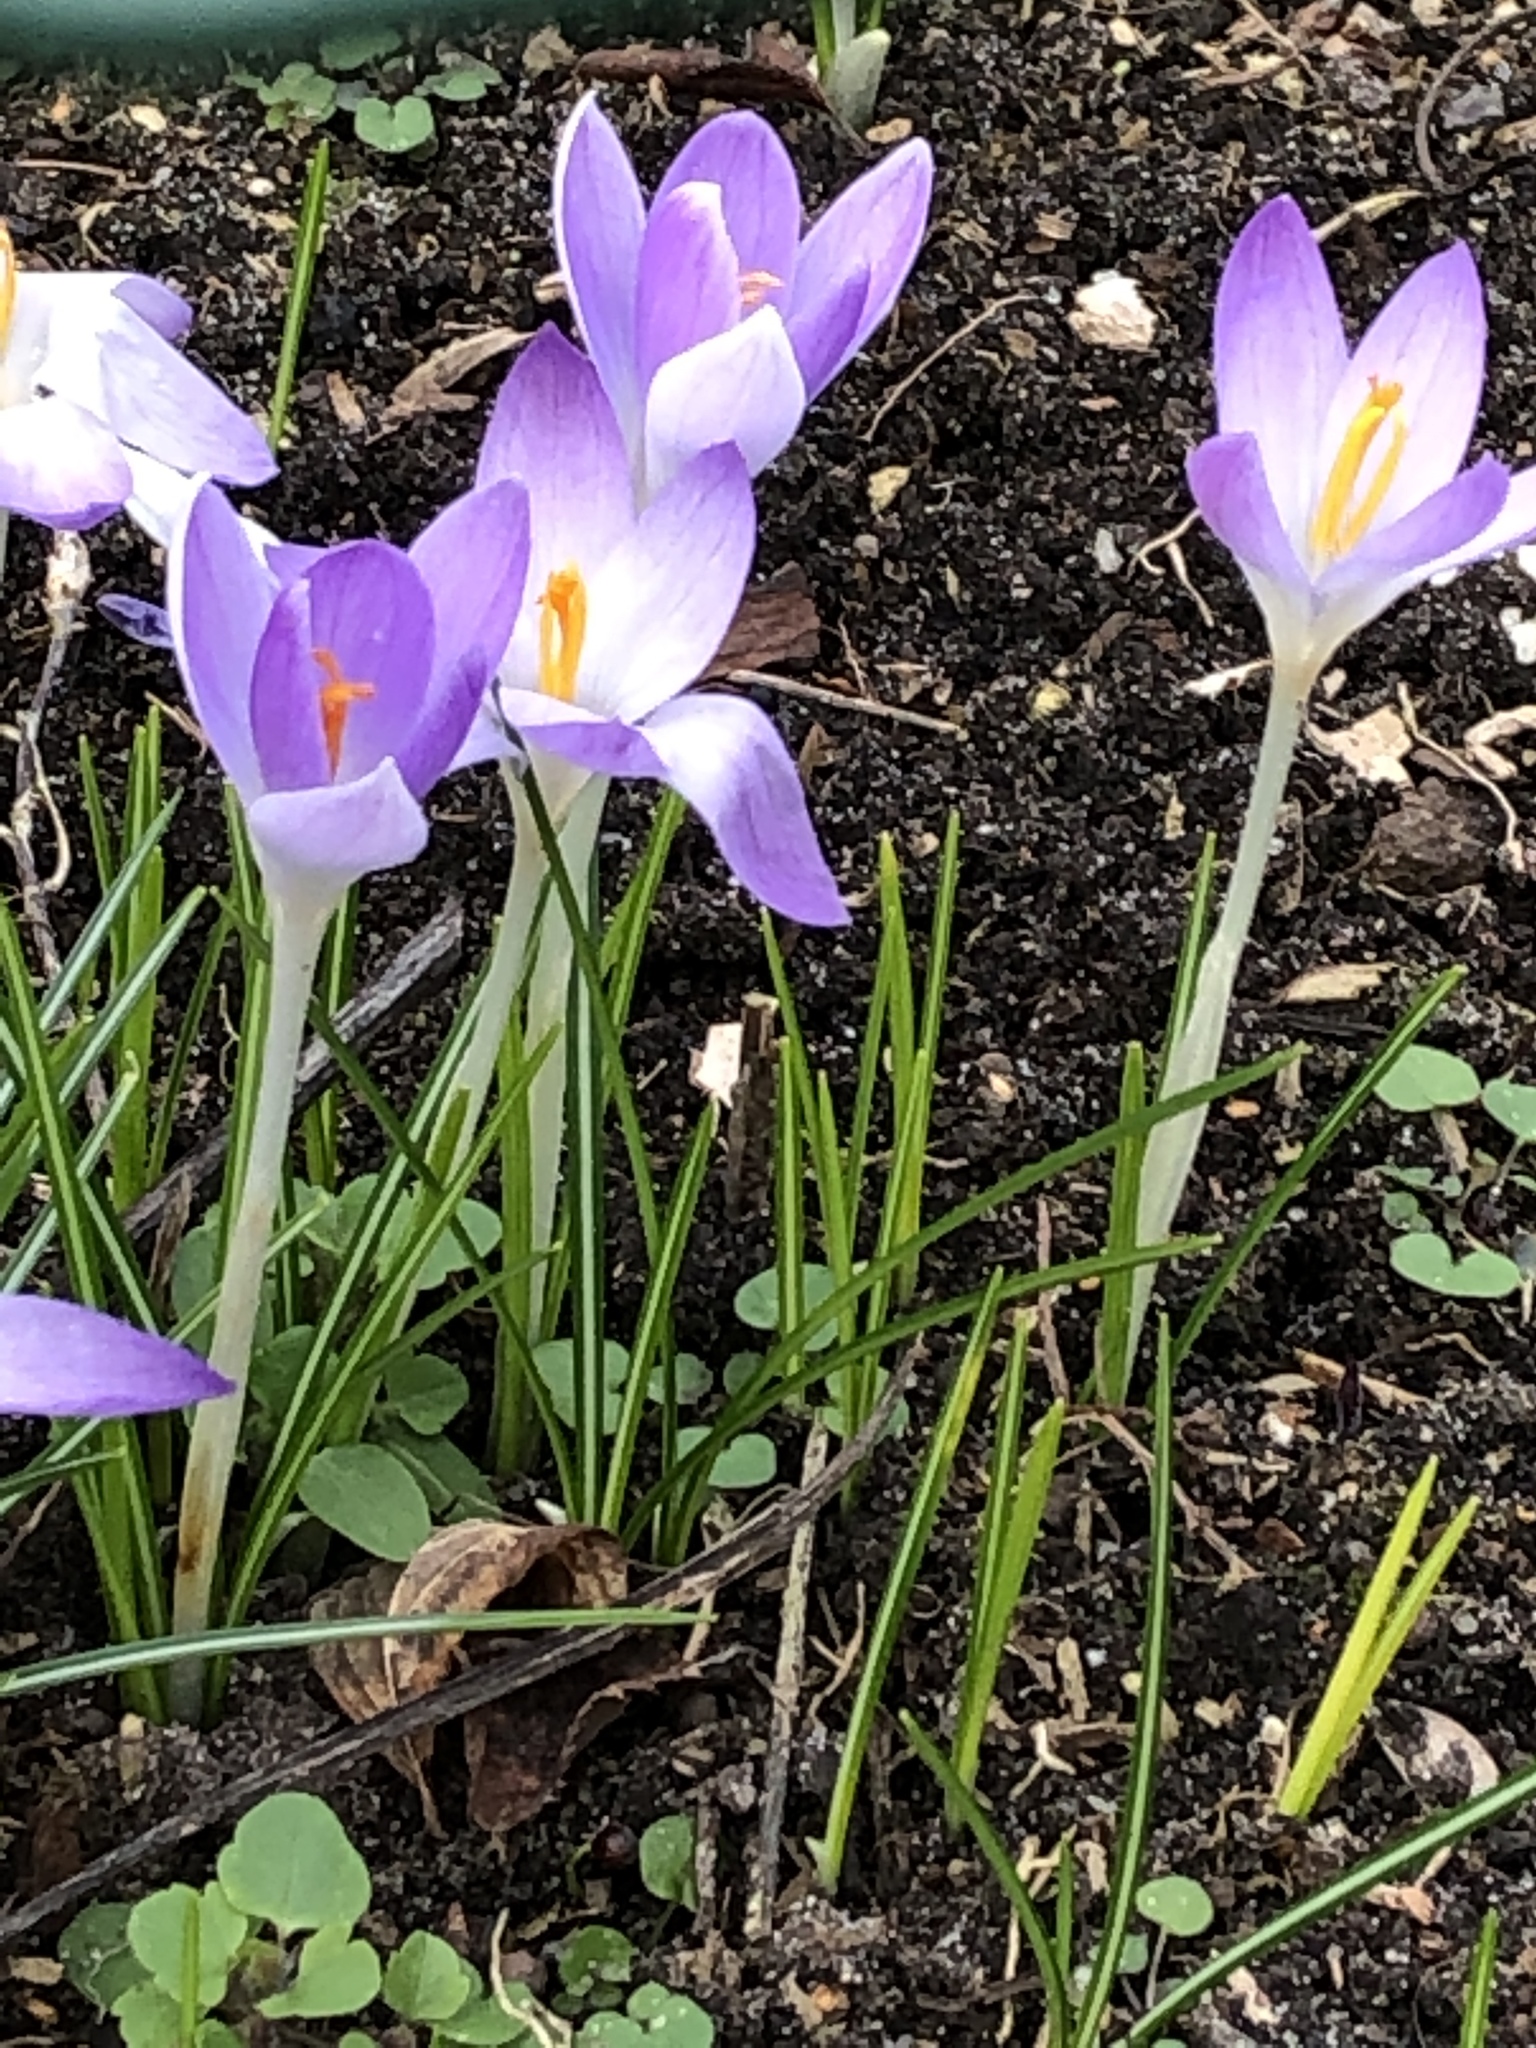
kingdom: Plantae
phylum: Tracheophyta
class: Liliopsida
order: Asparagales
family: Iridaceae
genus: Crocus
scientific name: Crocus tommasinianus
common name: Early crocus
